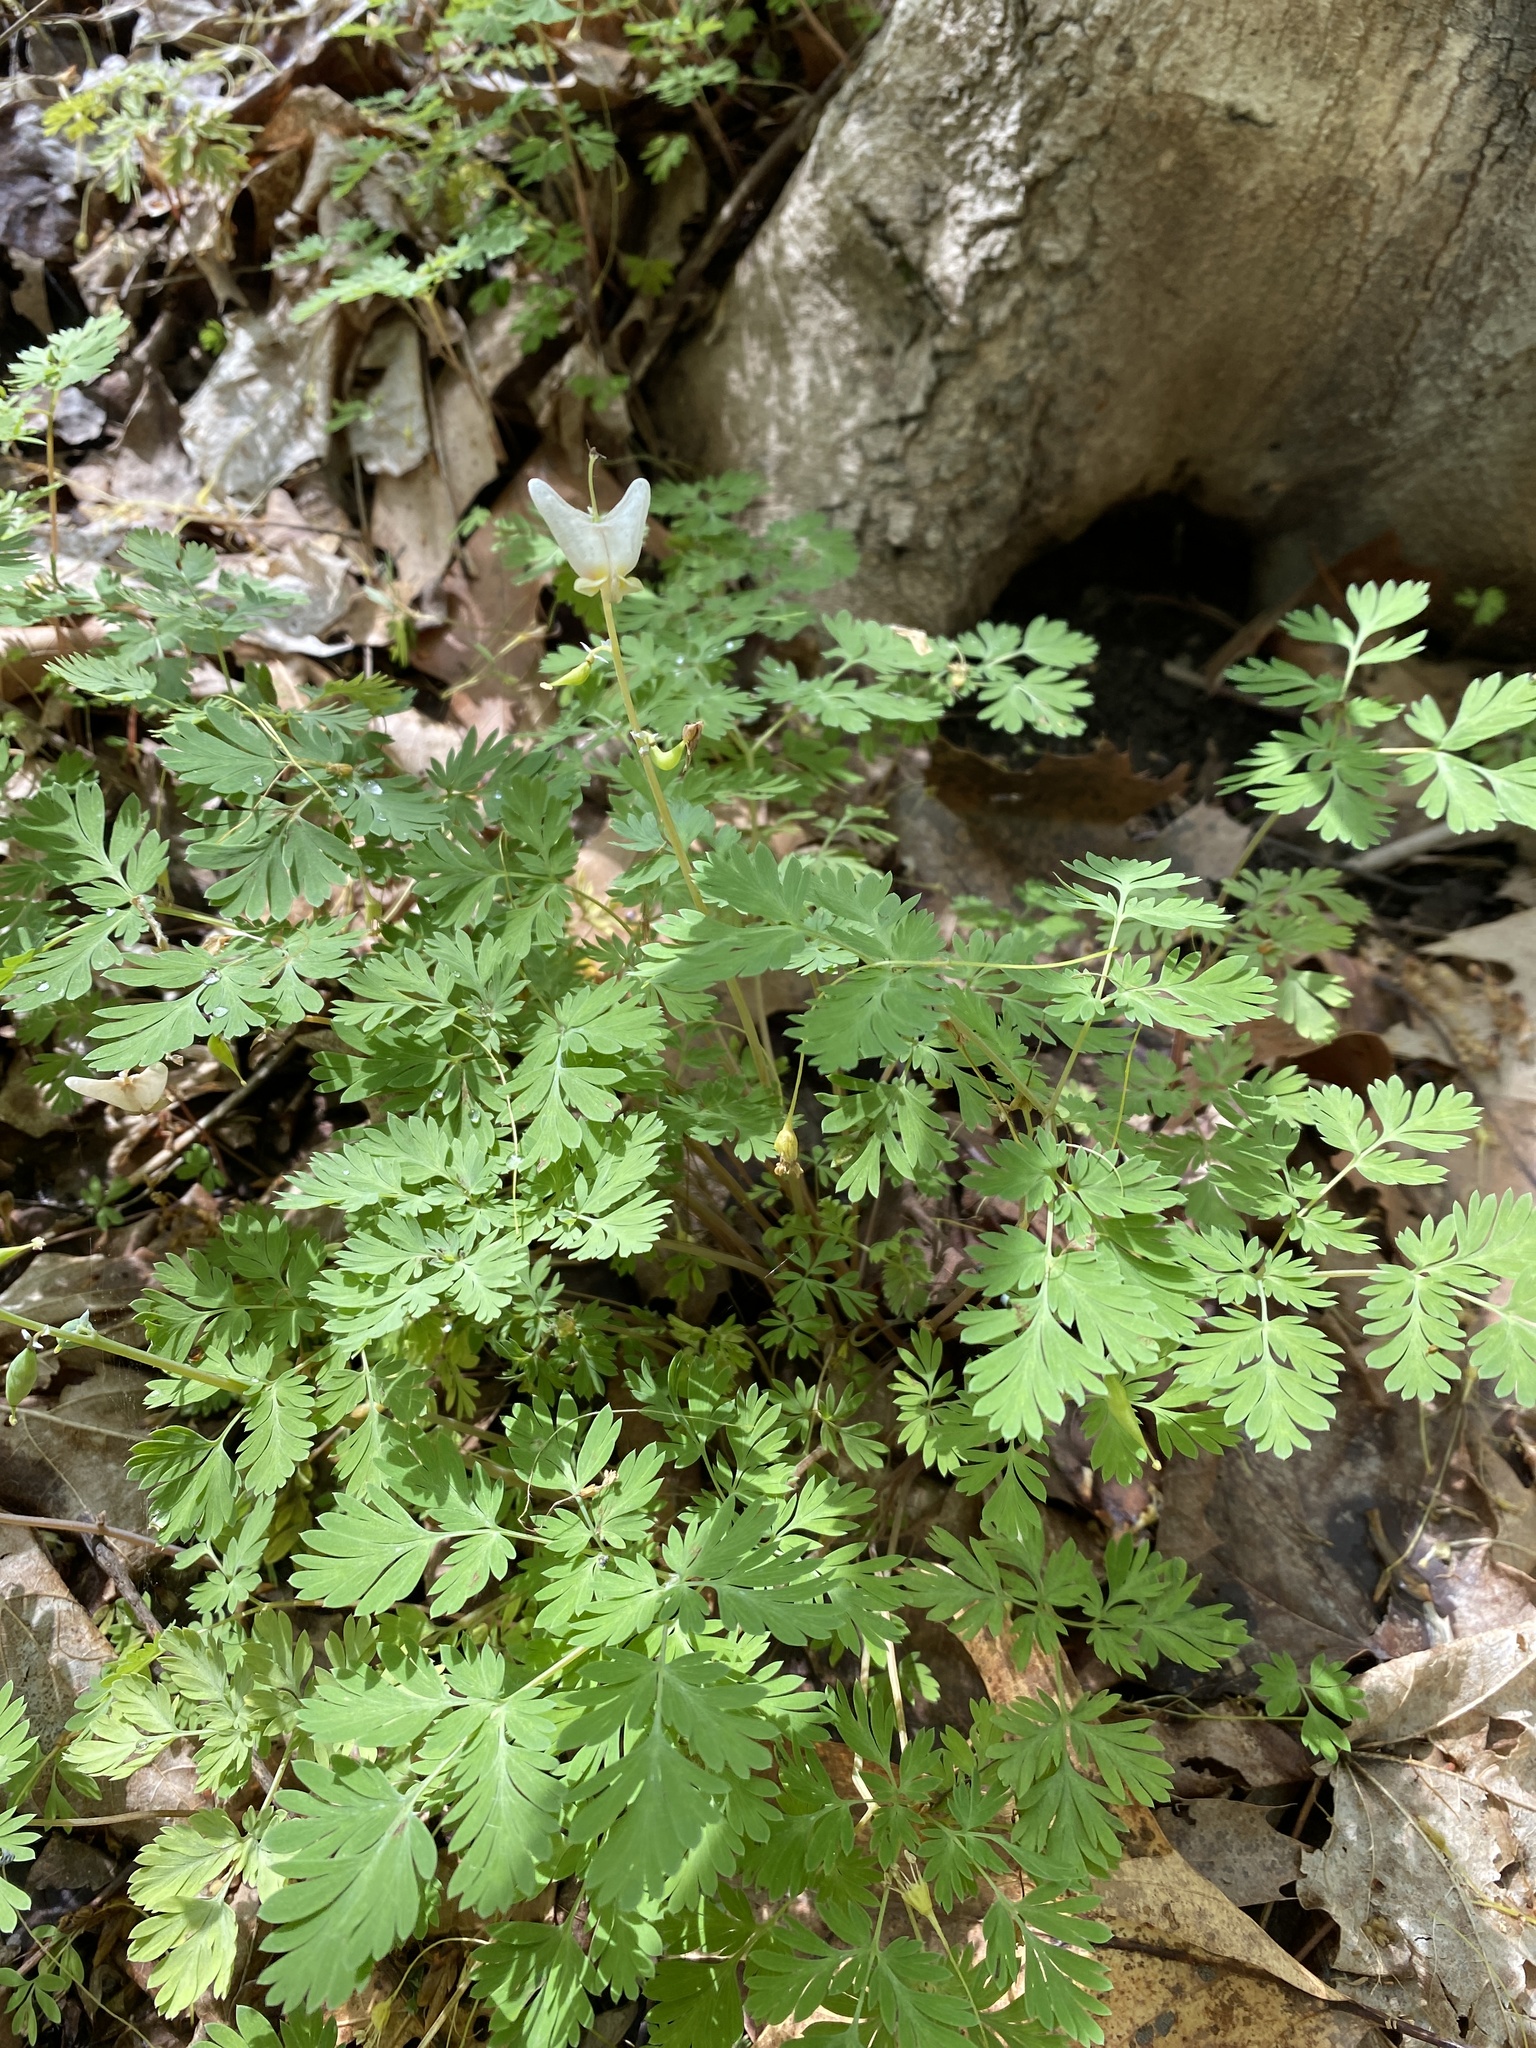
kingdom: Plantae
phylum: Tracheophyta
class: Magnoliopsida
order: Ranunculales
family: Papaveraceae
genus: Dicentra
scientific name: Dicentra cucullaria
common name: Dutchman's breeches
